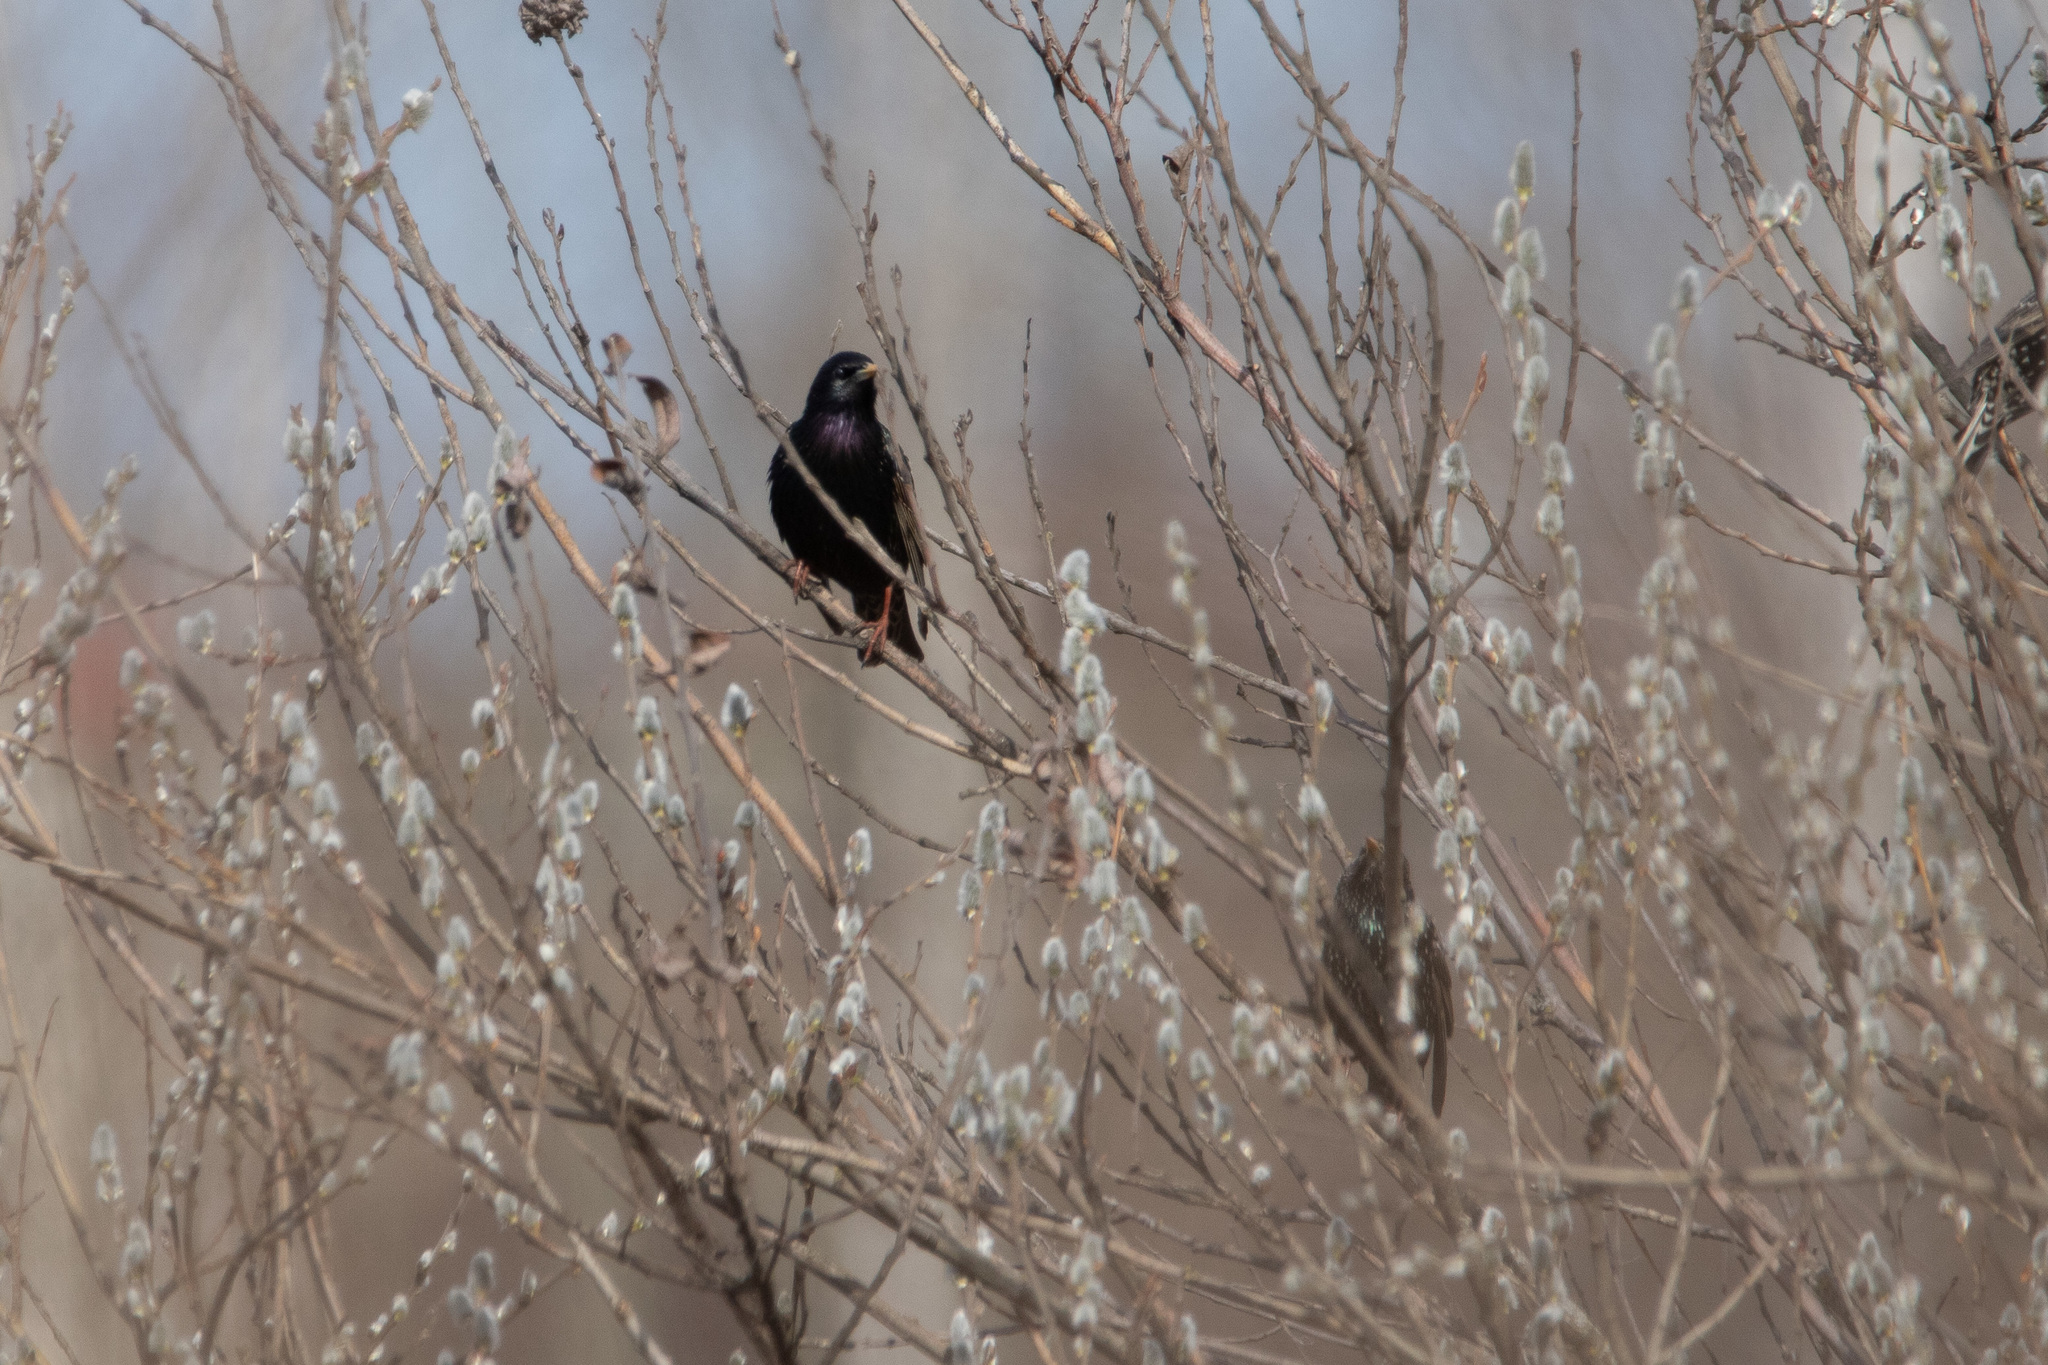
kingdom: Animalia
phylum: Chordata
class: Aves
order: Passeriformes
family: Sturnidae
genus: Sturnus
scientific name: Sturnus vulgaris
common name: Common starling
